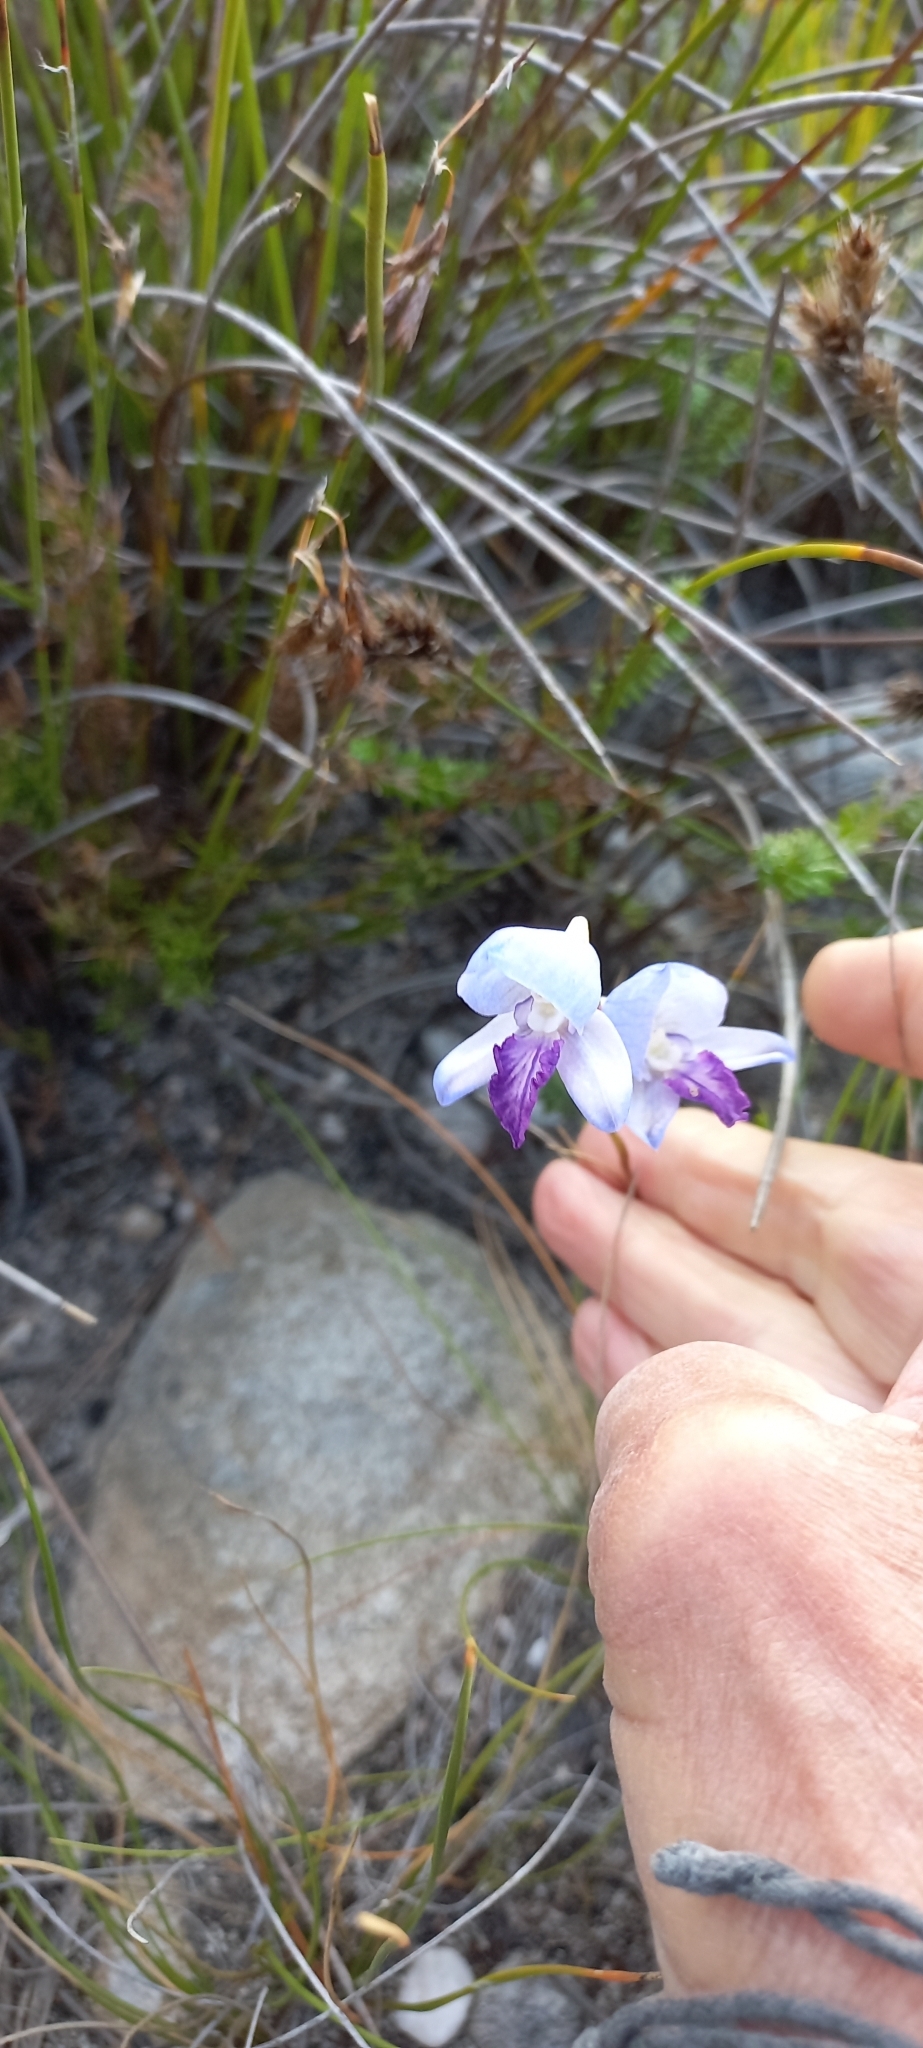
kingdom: Plantae
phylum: Tracheophyta
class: Liliopsida
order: Asparagales
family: Orchidaceae
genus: Disa
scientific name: Disa purpurascens
